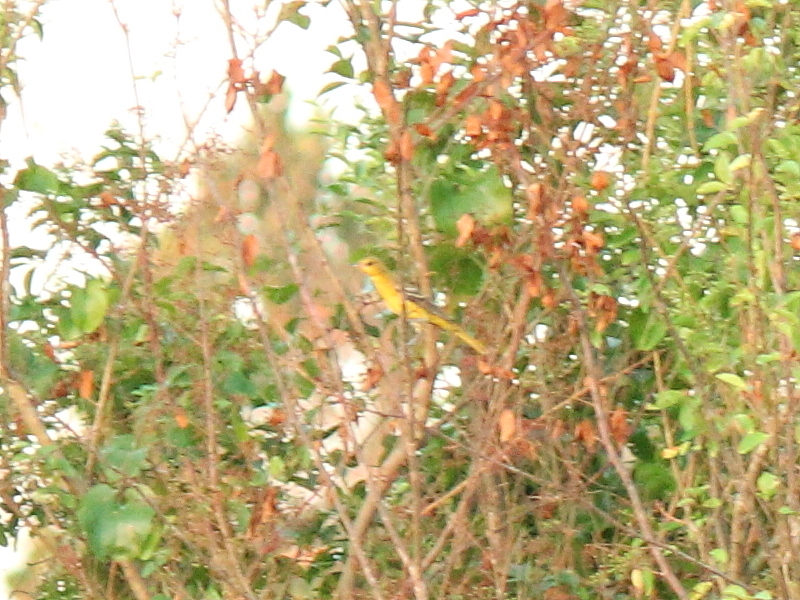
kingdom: Animalia
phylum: Chordata
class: Aves
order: Passeriformes
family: Icteridae
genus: Icterus
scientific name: Icterus galbula
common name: Baltimore oriole
